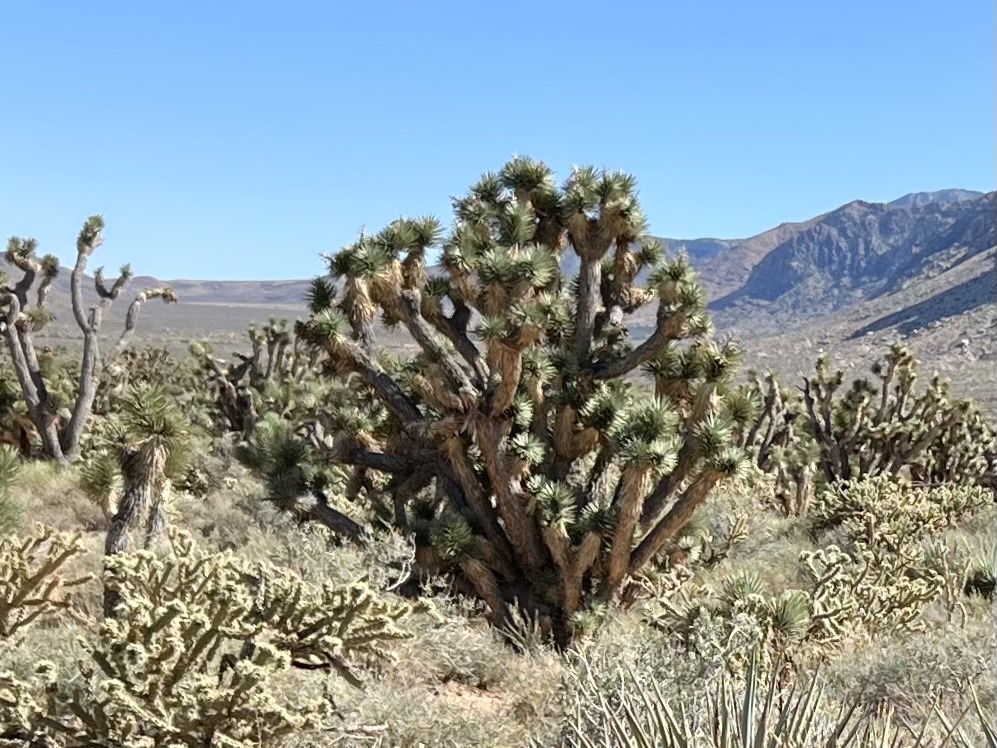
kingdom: Plantae
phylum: Tracheophyta
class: Liliopsida
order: Asparagales
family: Asparagaceae
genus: Yucca
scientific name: Yucca brevifolia
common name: Joshua tree
